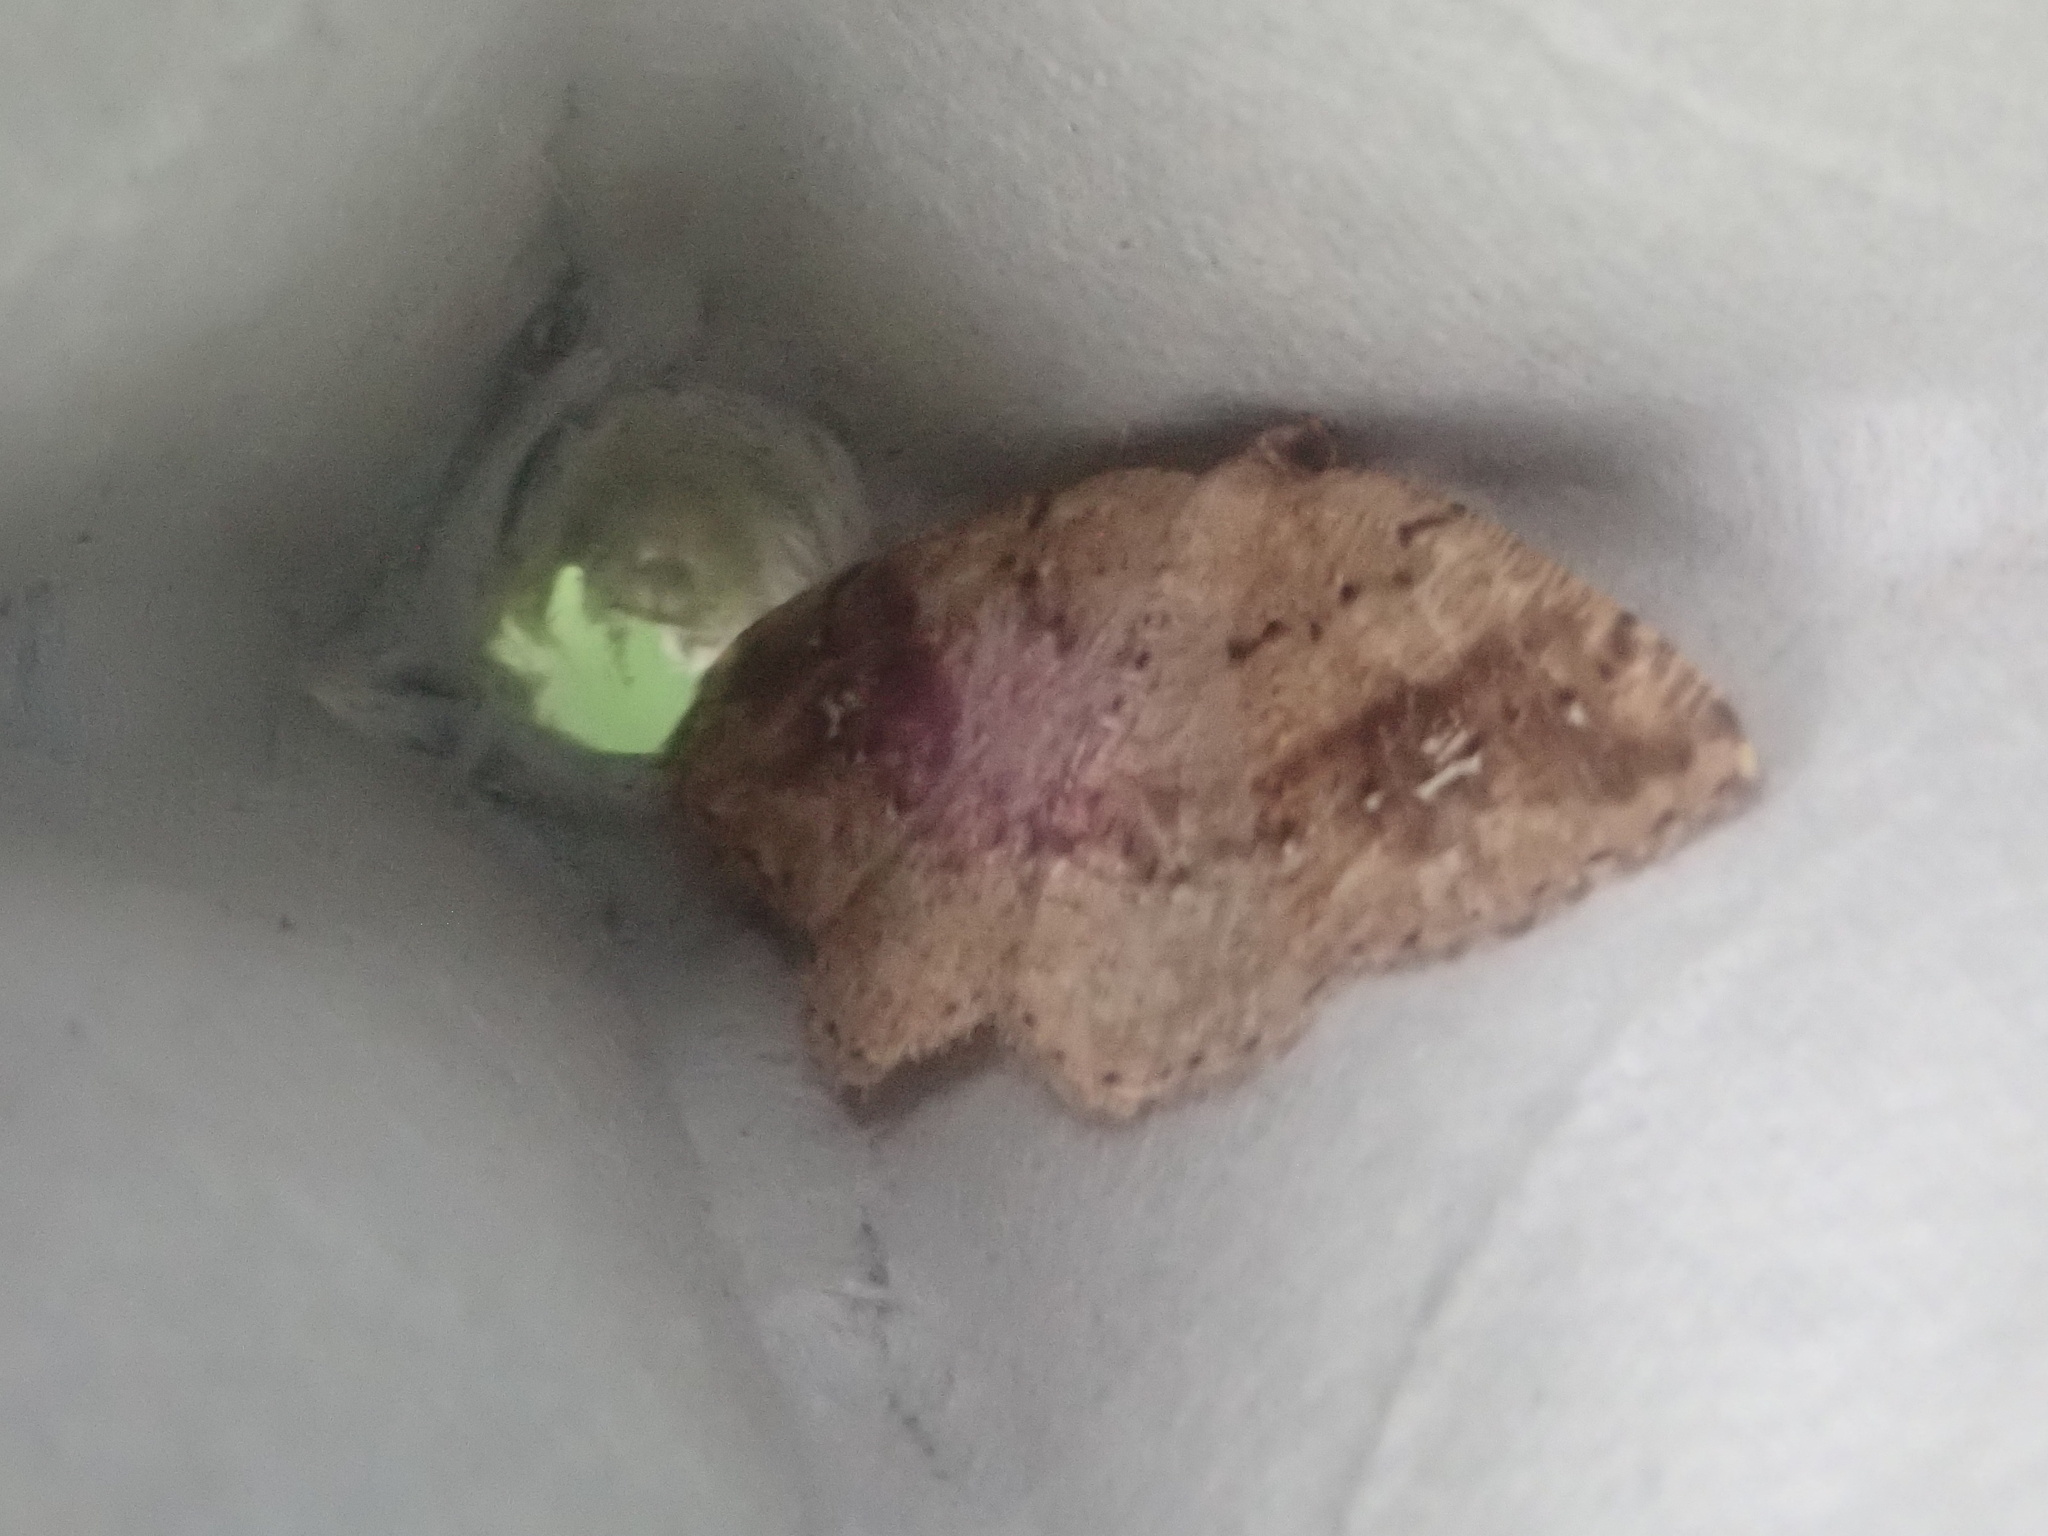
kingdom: Animalia
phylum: Arthropoda
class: Insecta
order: Lepidoptera
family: Geometridae
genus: Homochlodes
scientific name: Homochlodes fritillaria
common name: Pale homochlodes
